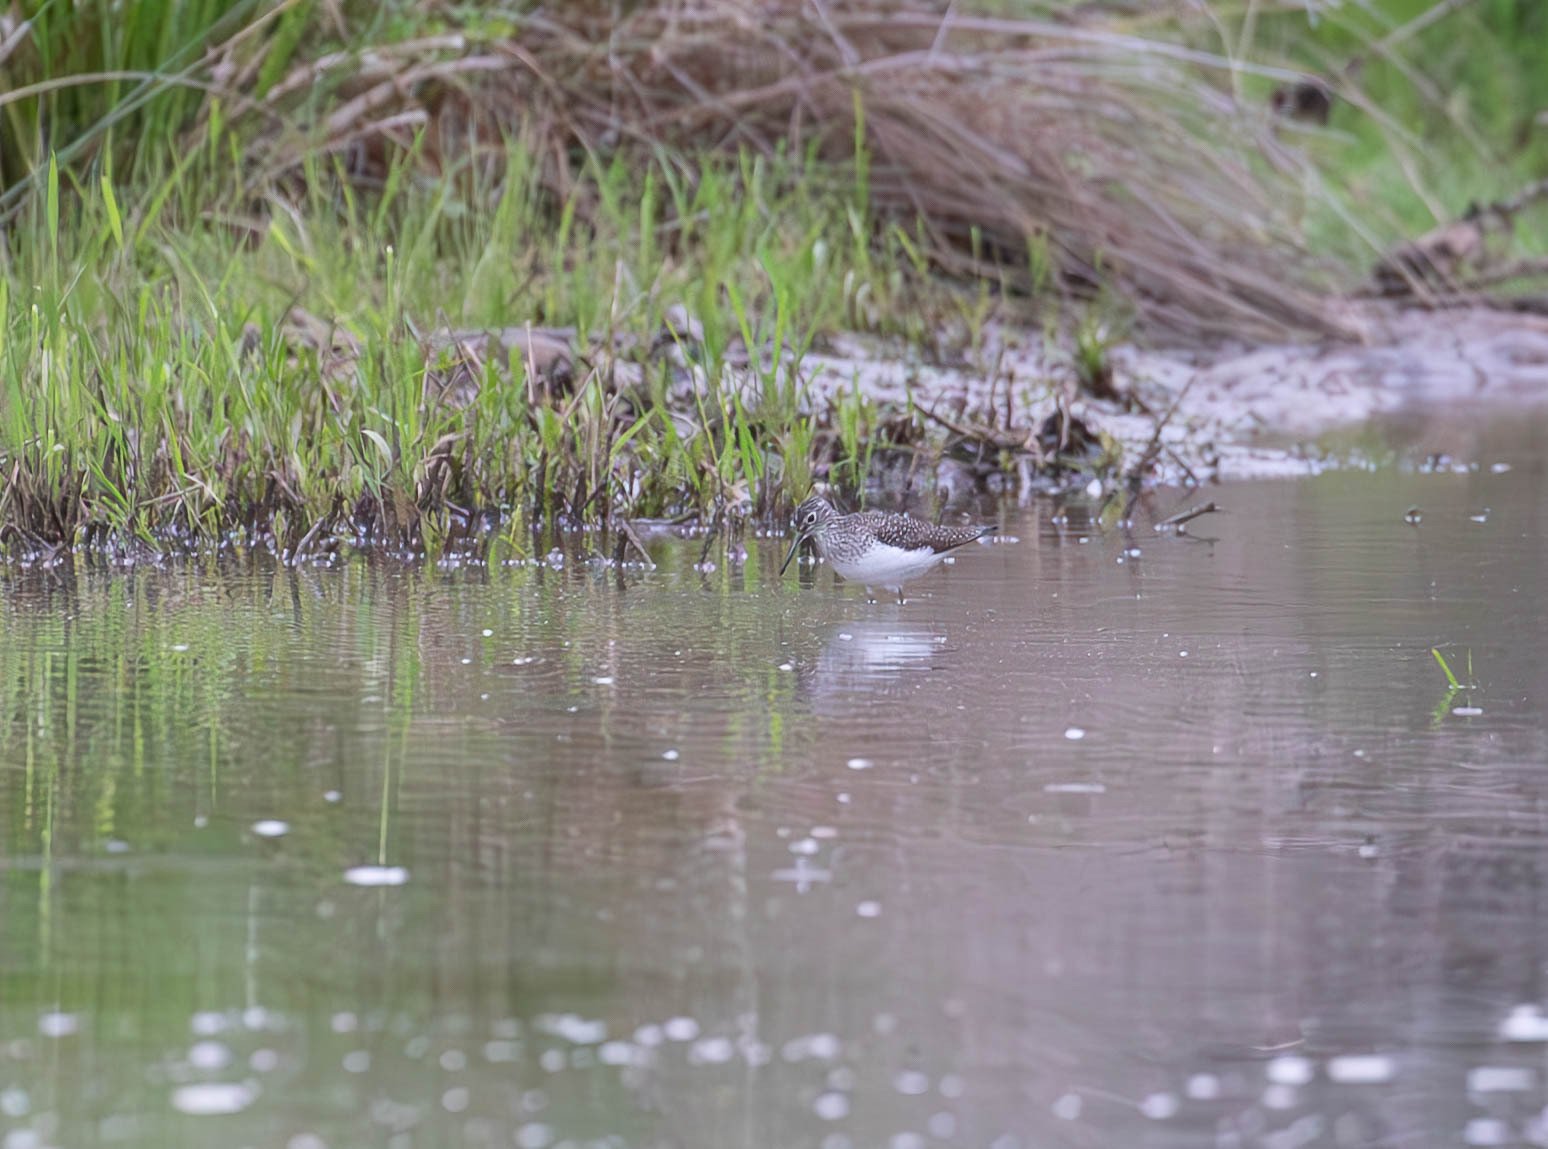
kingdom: Animalia
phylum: Chordata
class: Aves
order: Charadriiformes
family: Scolopacidae
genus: Tringa
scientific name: Tringa solitaria
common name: Solitary sandpiper
